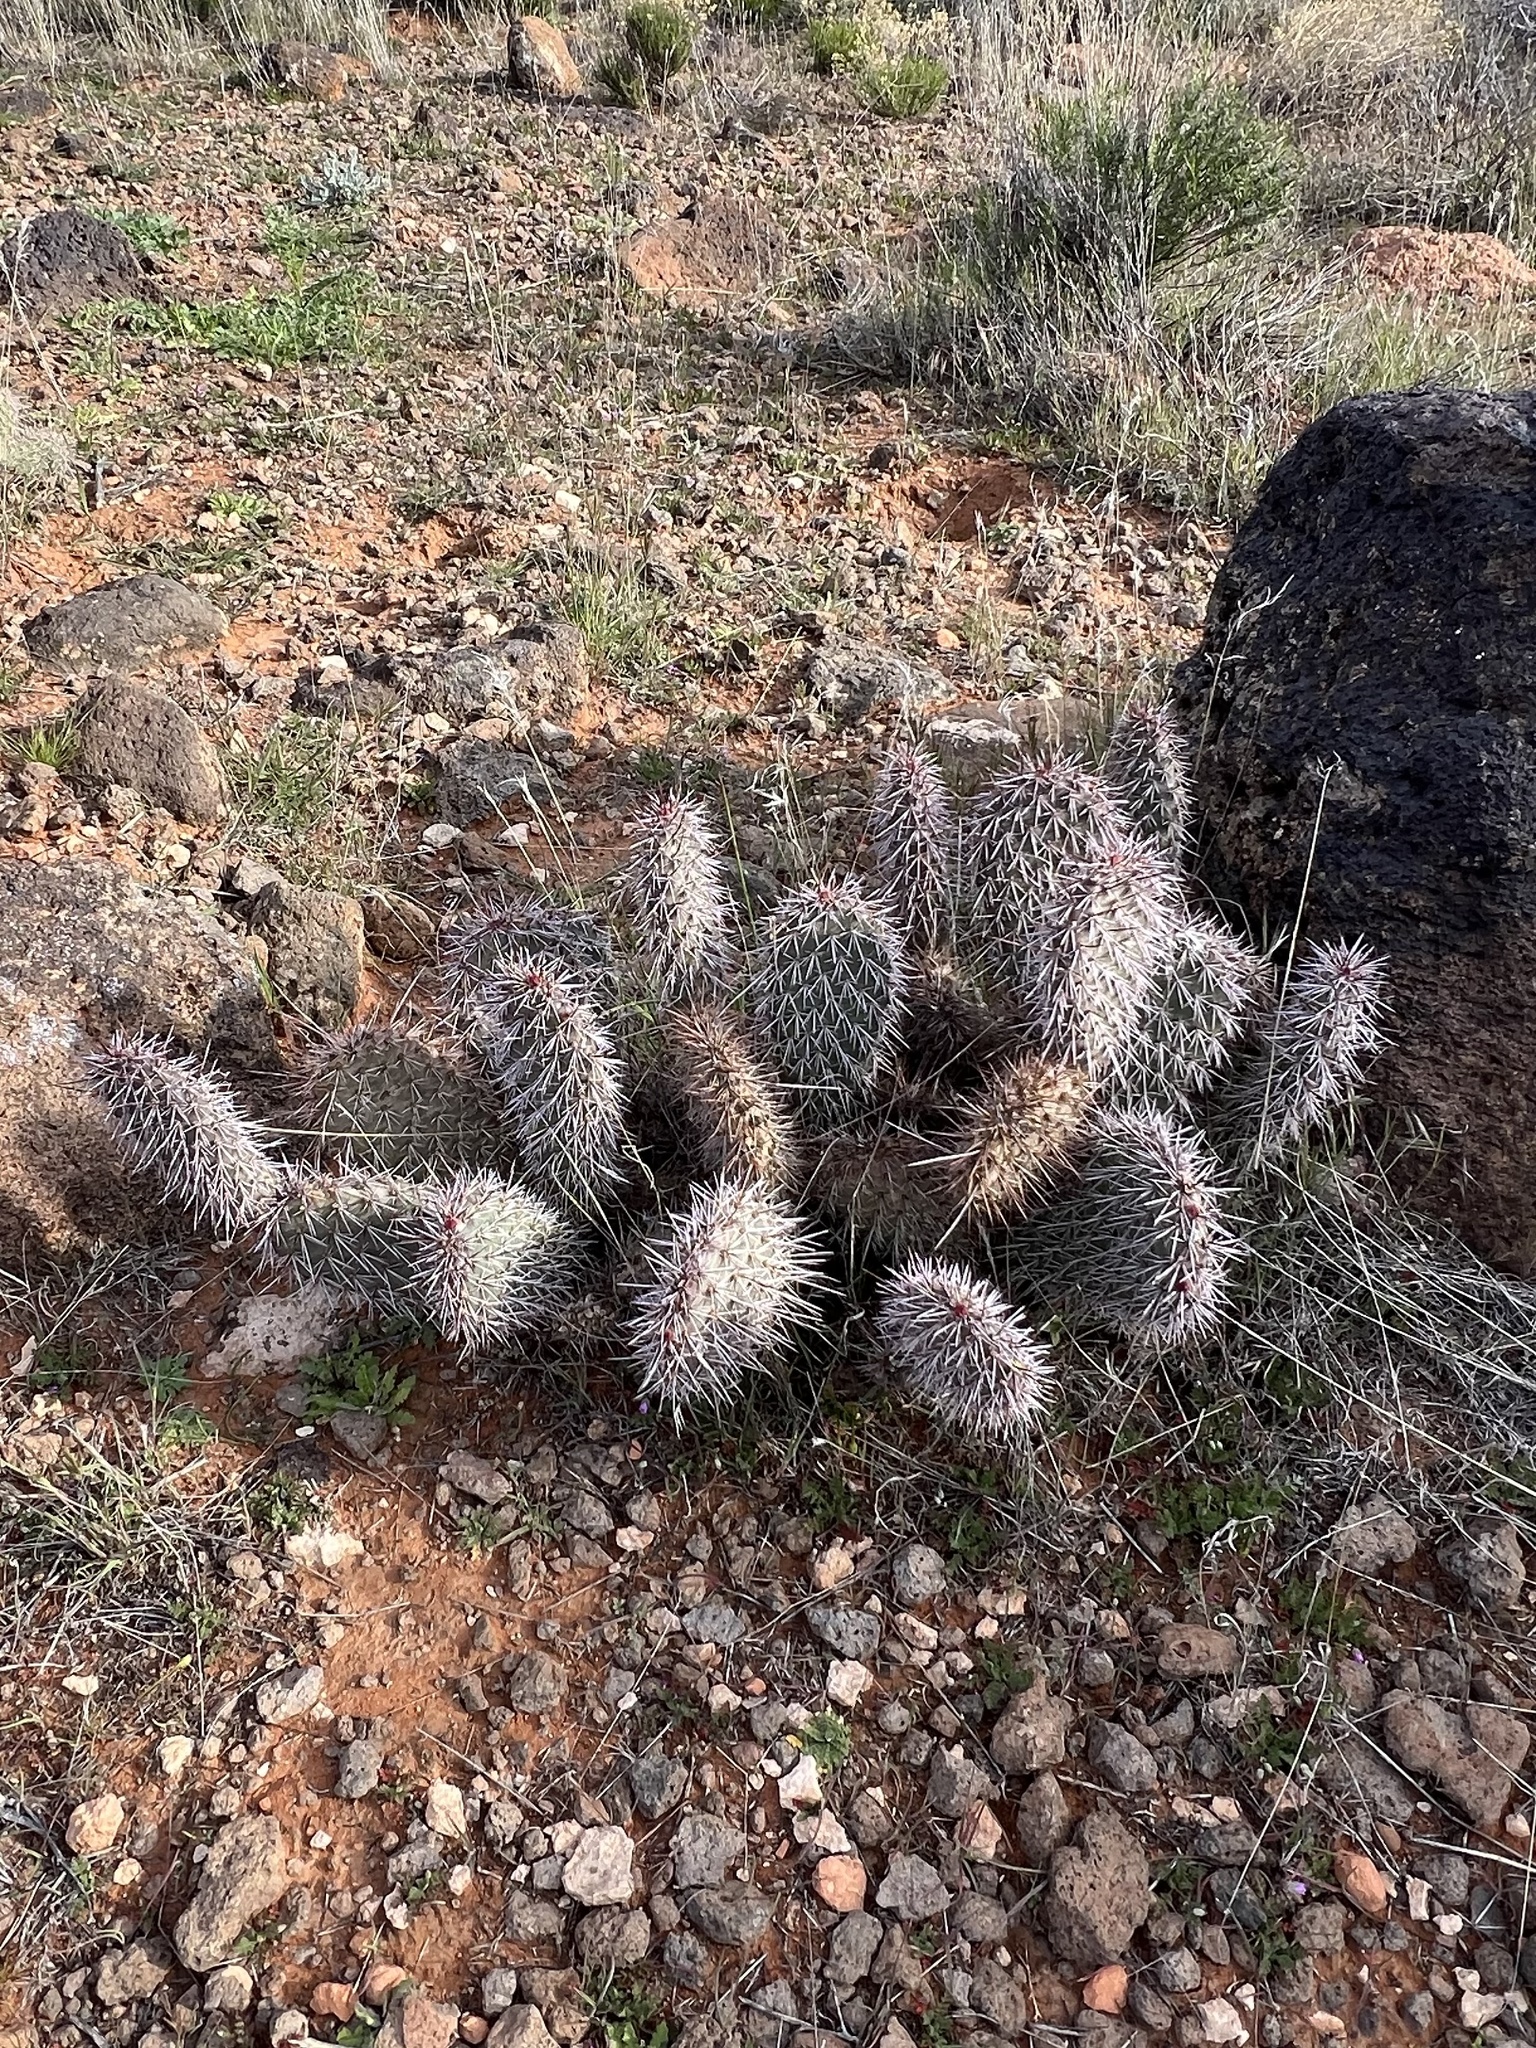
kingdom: Plantae
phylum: Tracheophyta
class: Magnoliopsida
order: Caryophyllales
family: Cactaceae
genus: Opuntia
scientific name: Opuntia polyacantha
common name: Plains prickly-pear
